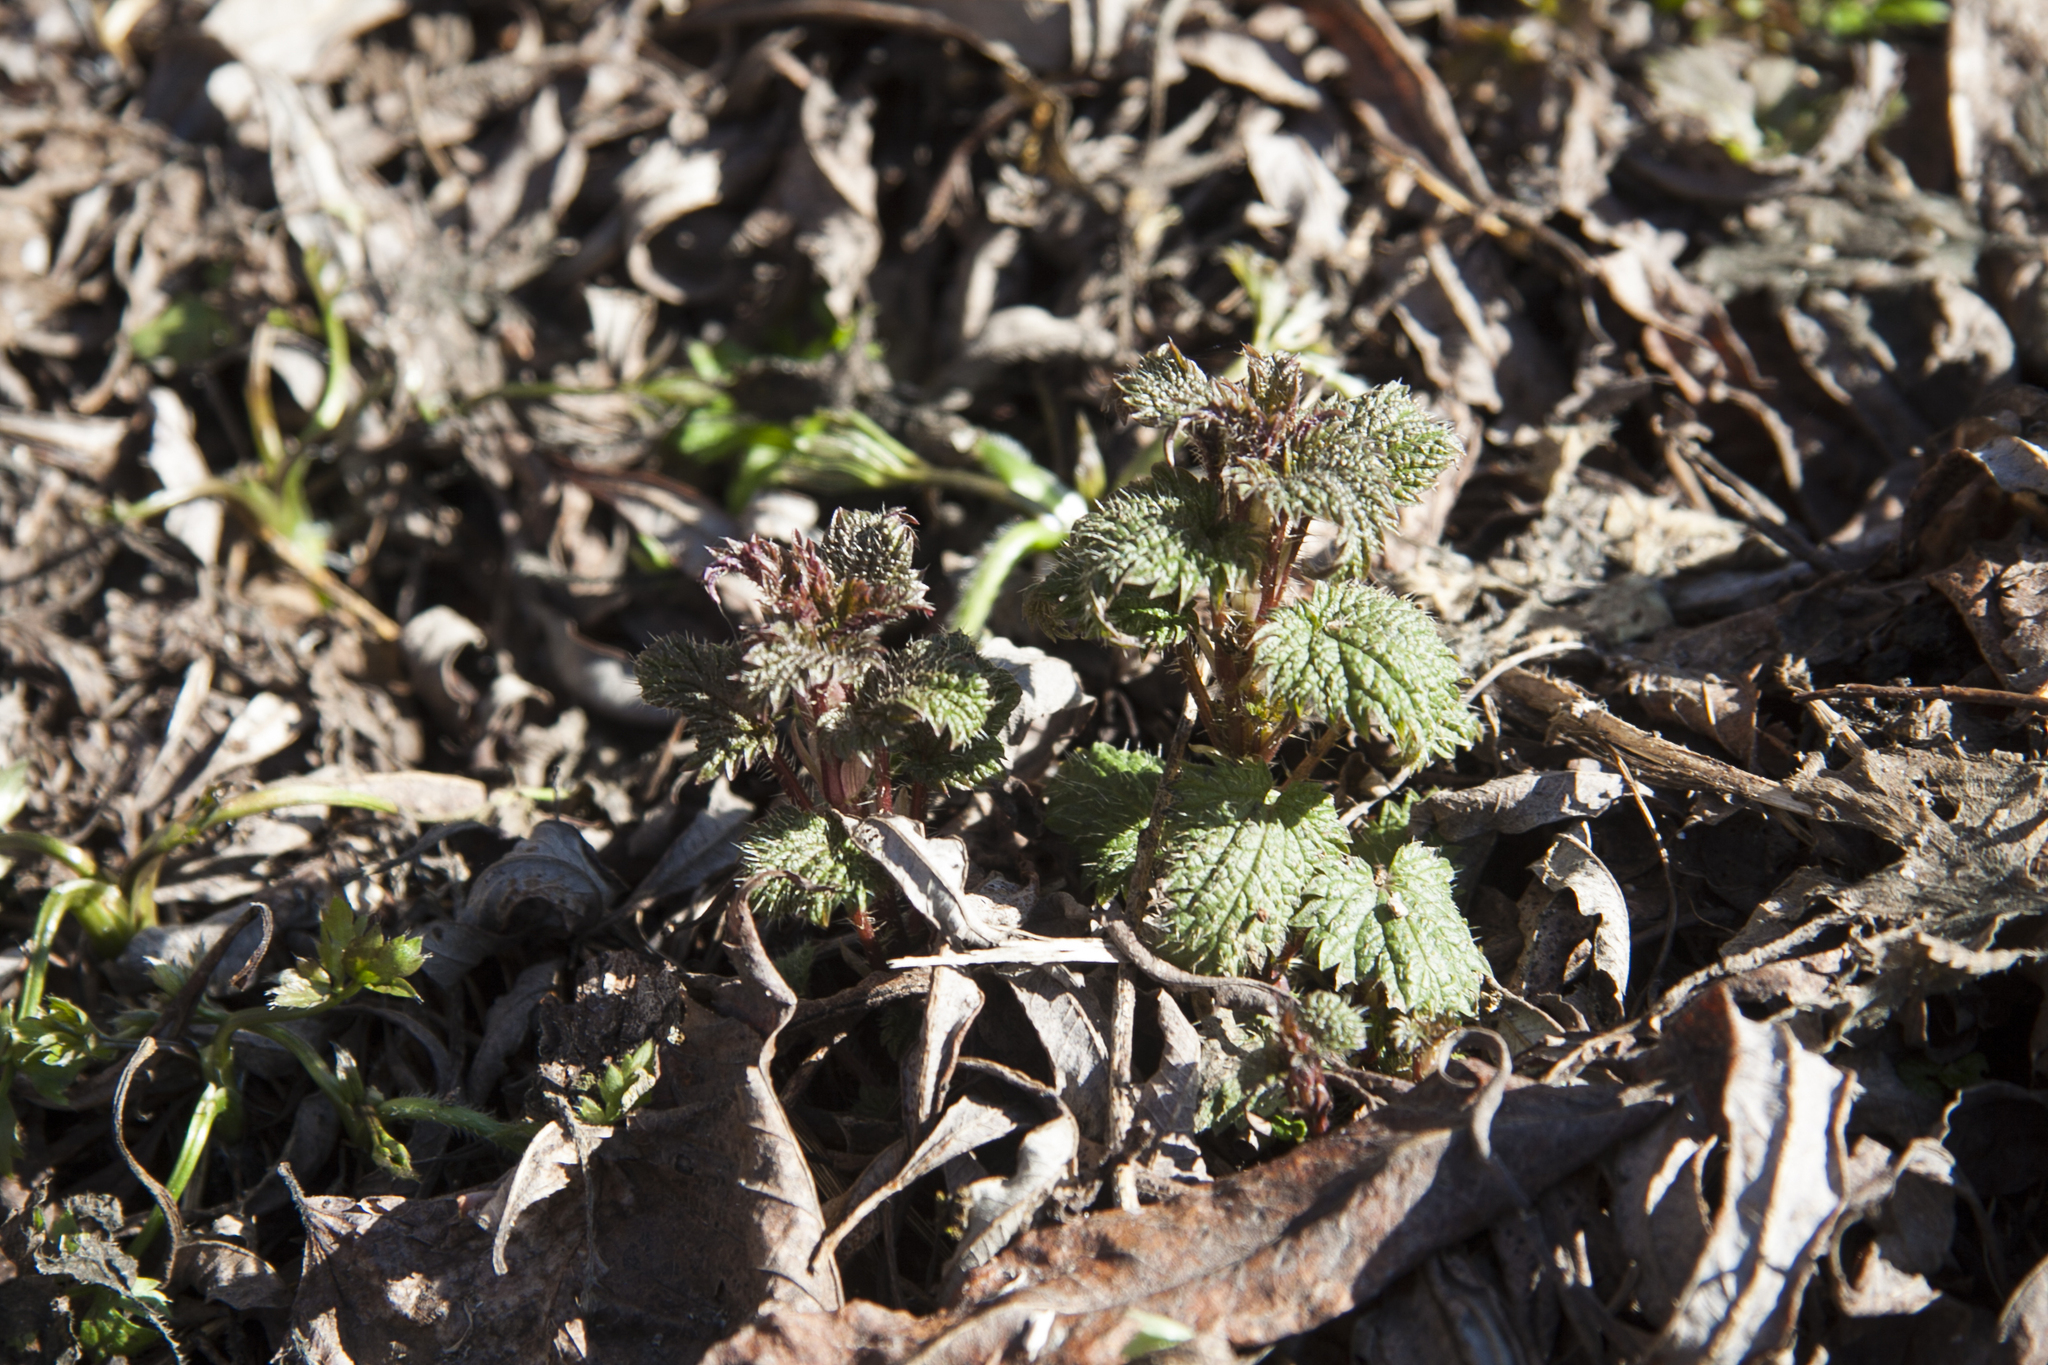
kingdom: Plantae
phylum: Tracheophyta
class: Magnoliopsida
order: Rosales
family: Urticaceae
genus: Urtica
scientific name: Urtica dioica
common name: Common nettle
